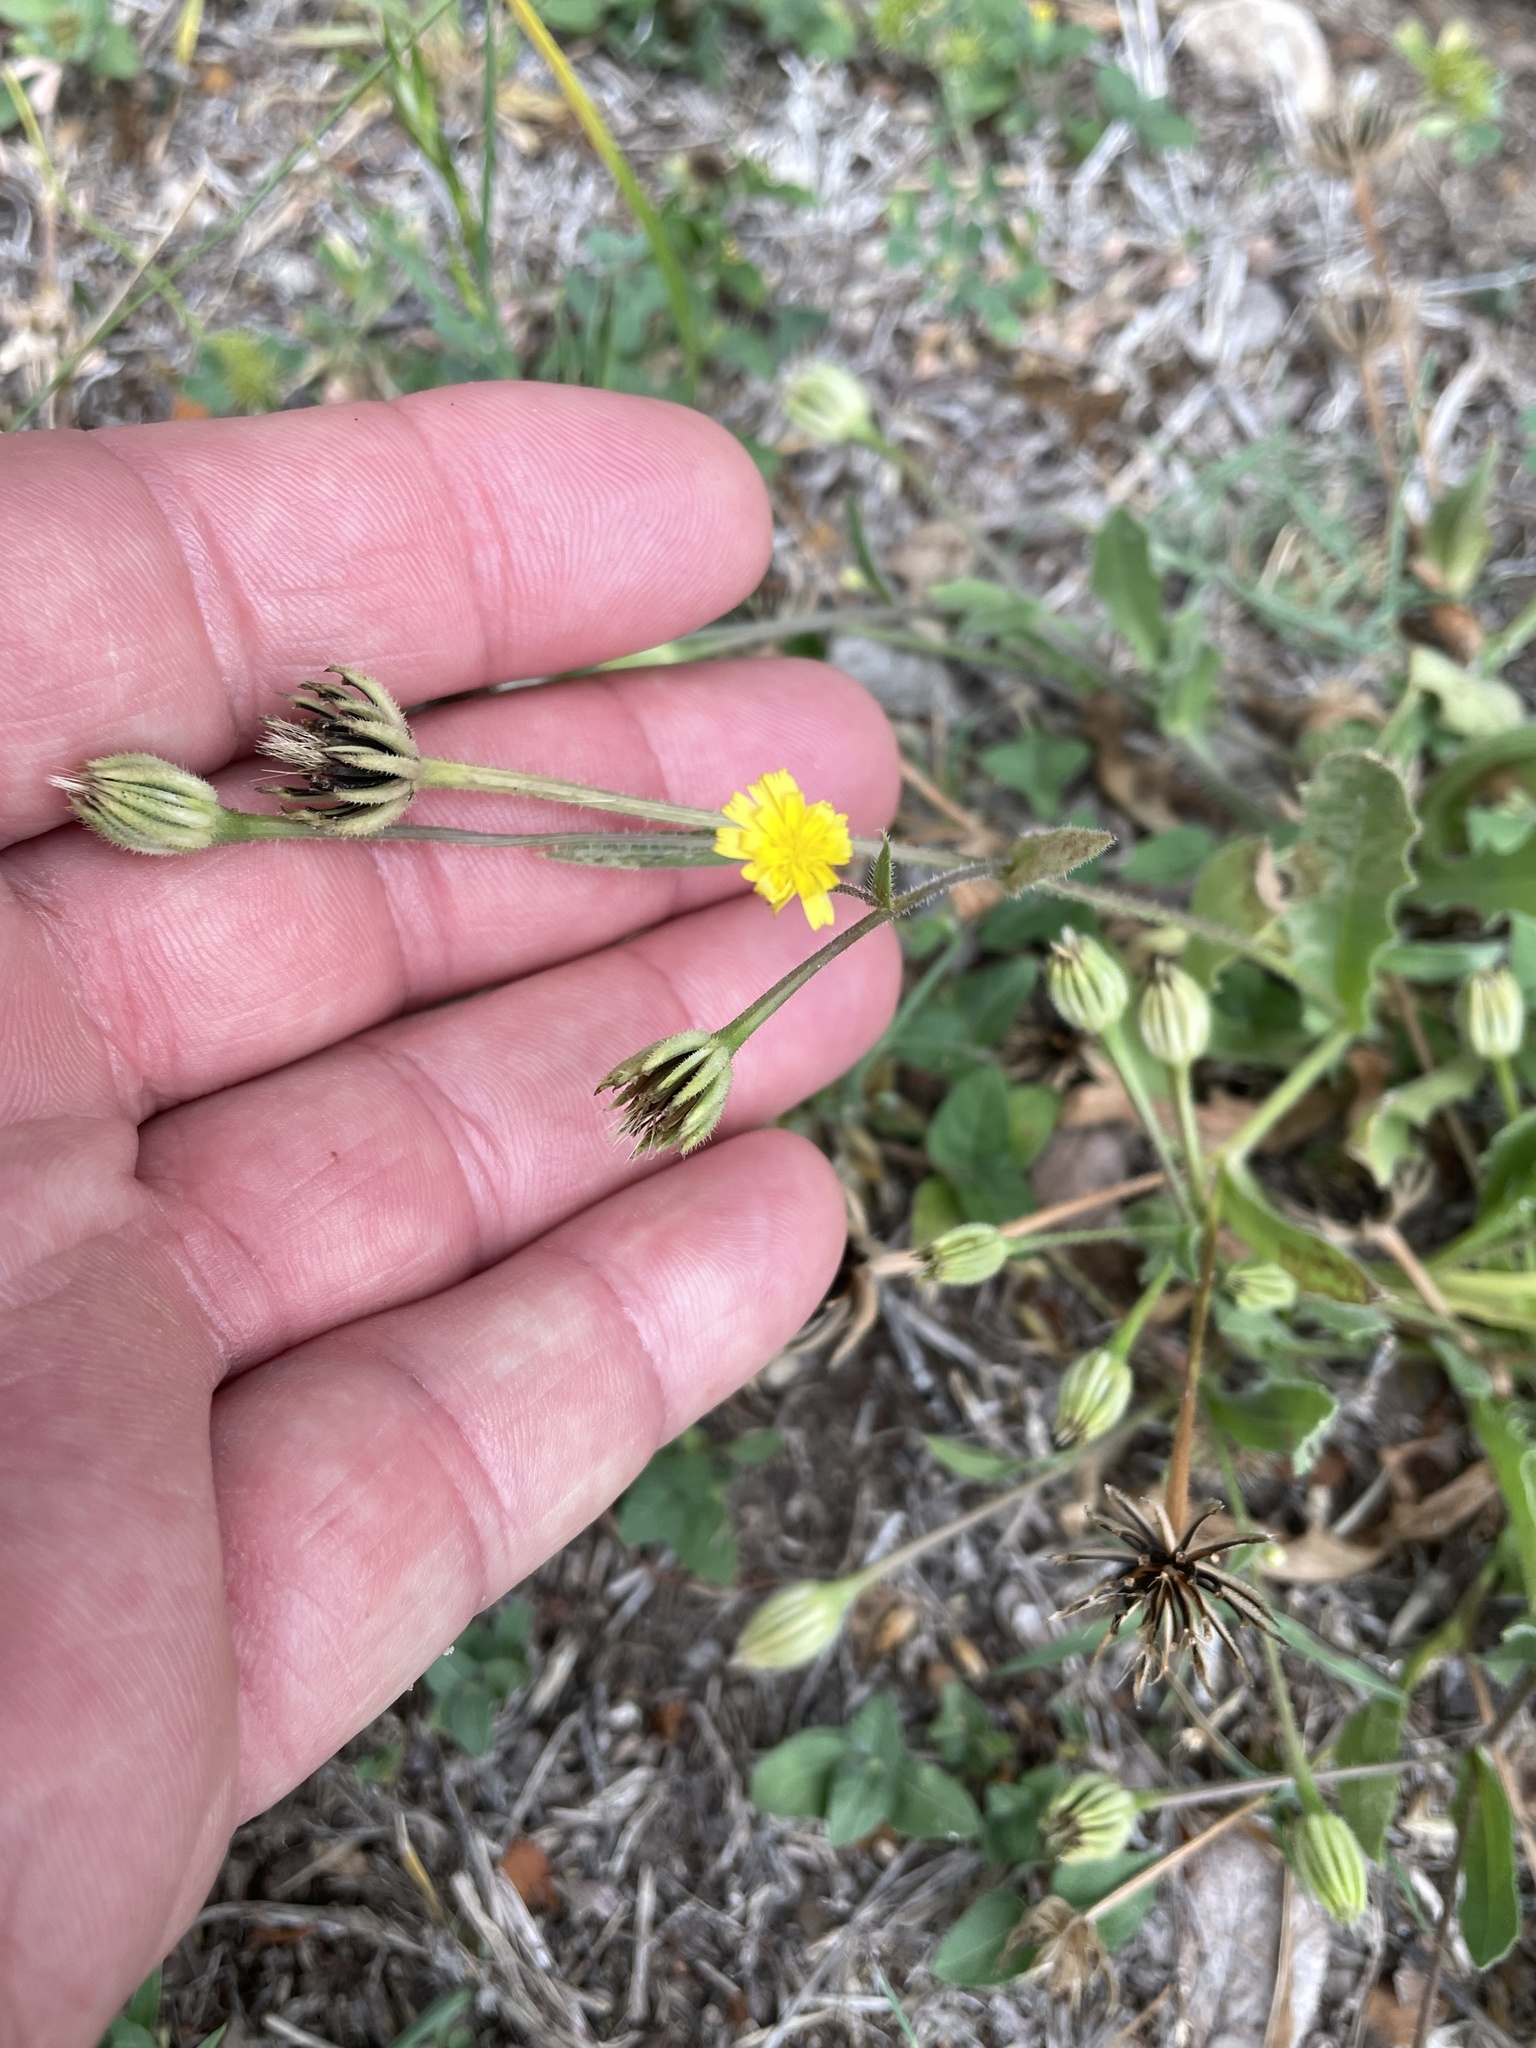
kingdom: Plantae
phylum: Tracheophyta
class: Magnoliopsida
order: Asterales
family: Asteraceae
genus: Hedypnois
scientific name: Hedypnois rhagadioloides
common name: Cretan weed
